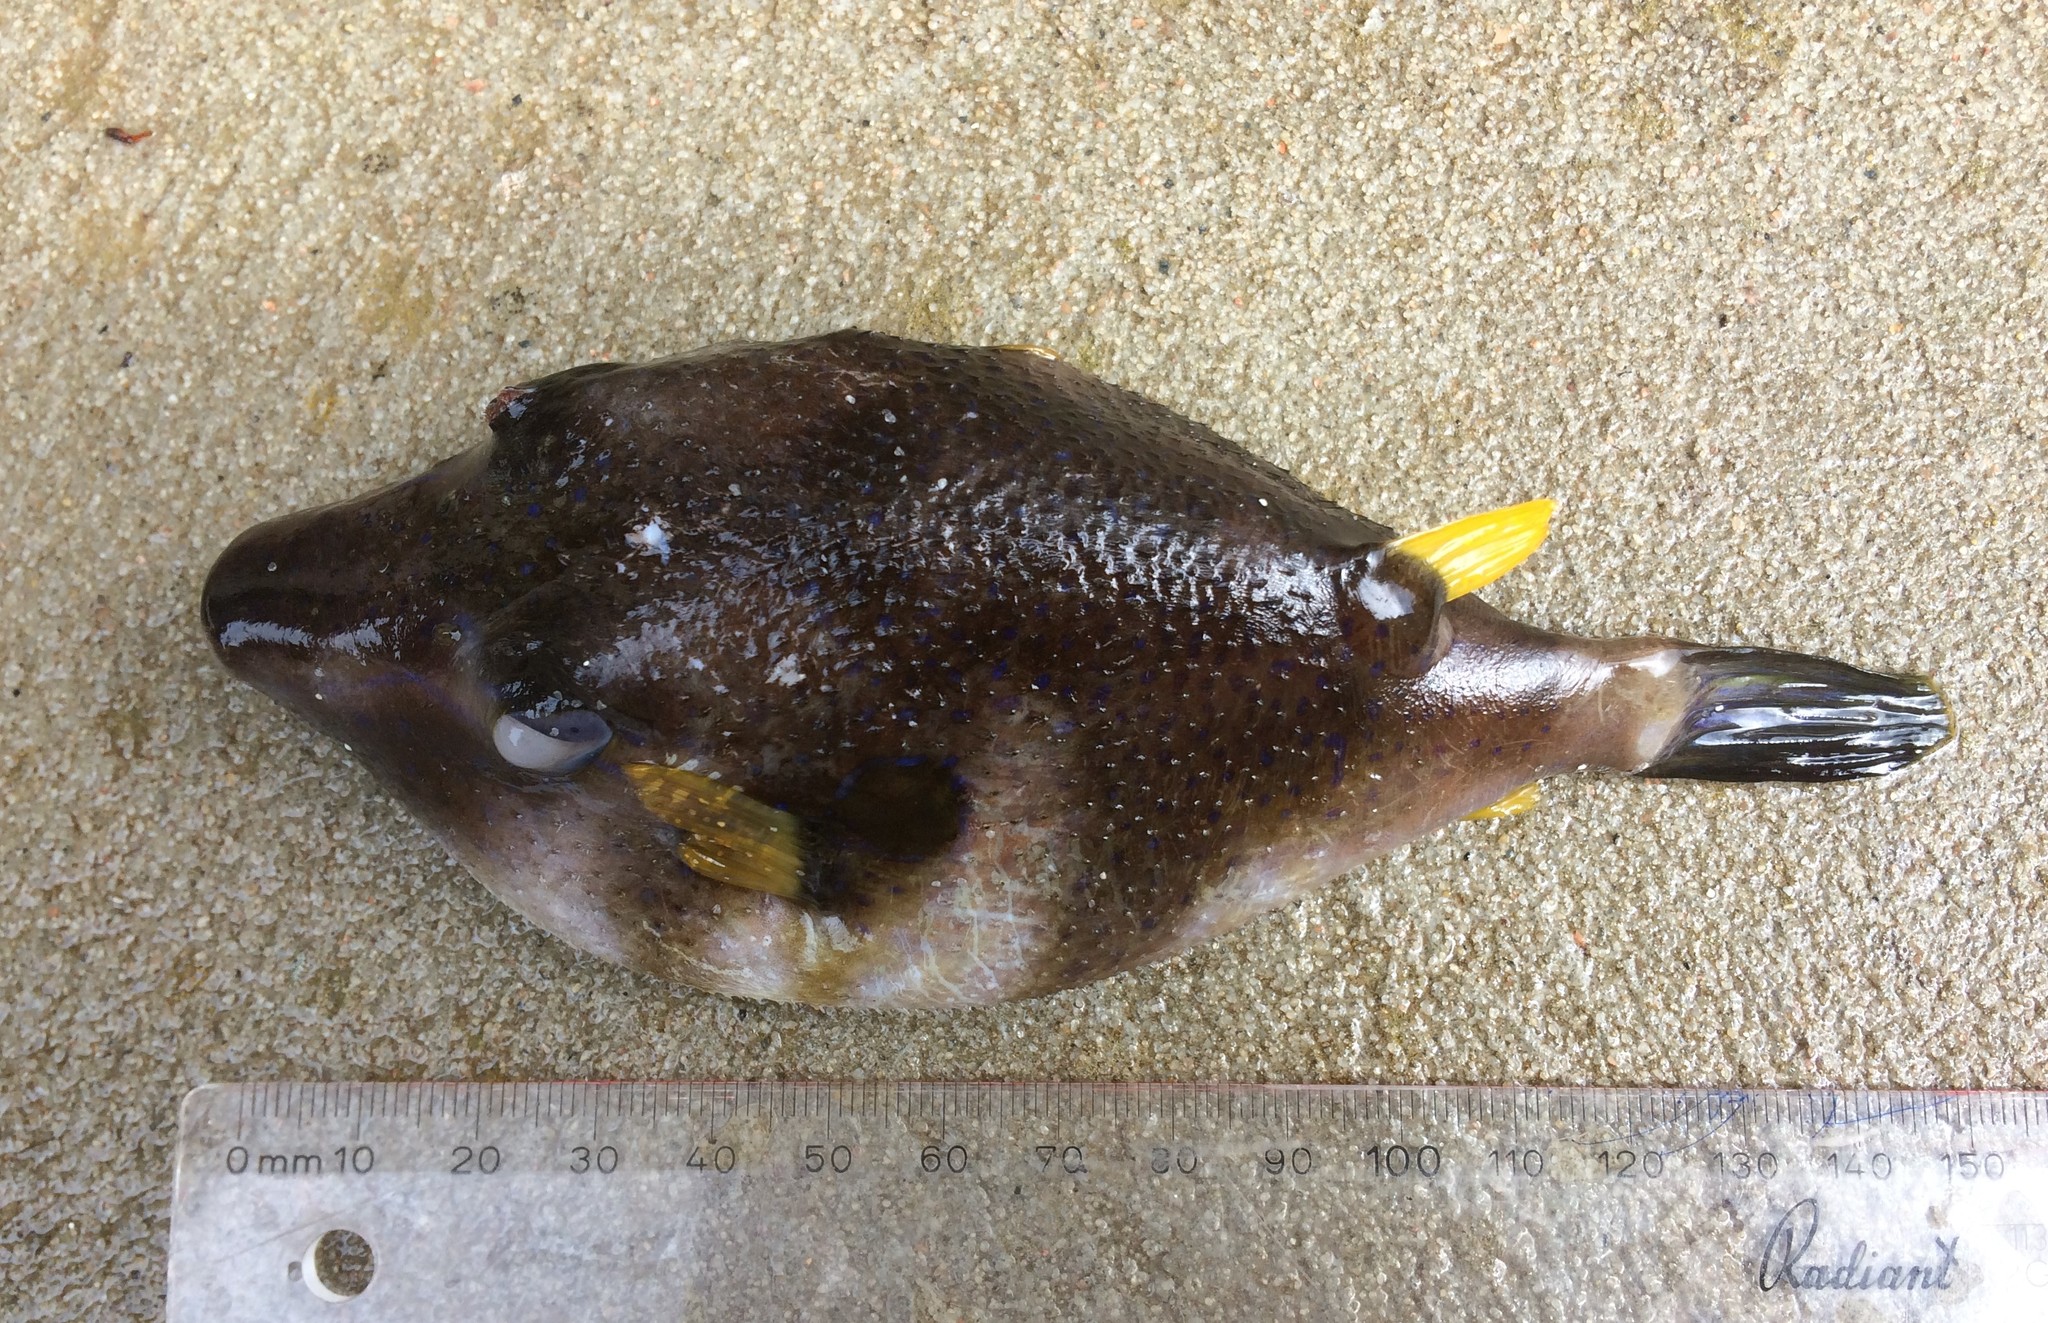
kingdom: Animalia
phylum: Chordata
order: Tetraodontiformes
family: Tetraodontidae
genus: Omegophora
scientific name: Omegophora cyanopunctata
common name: Bluespotted toadfish
